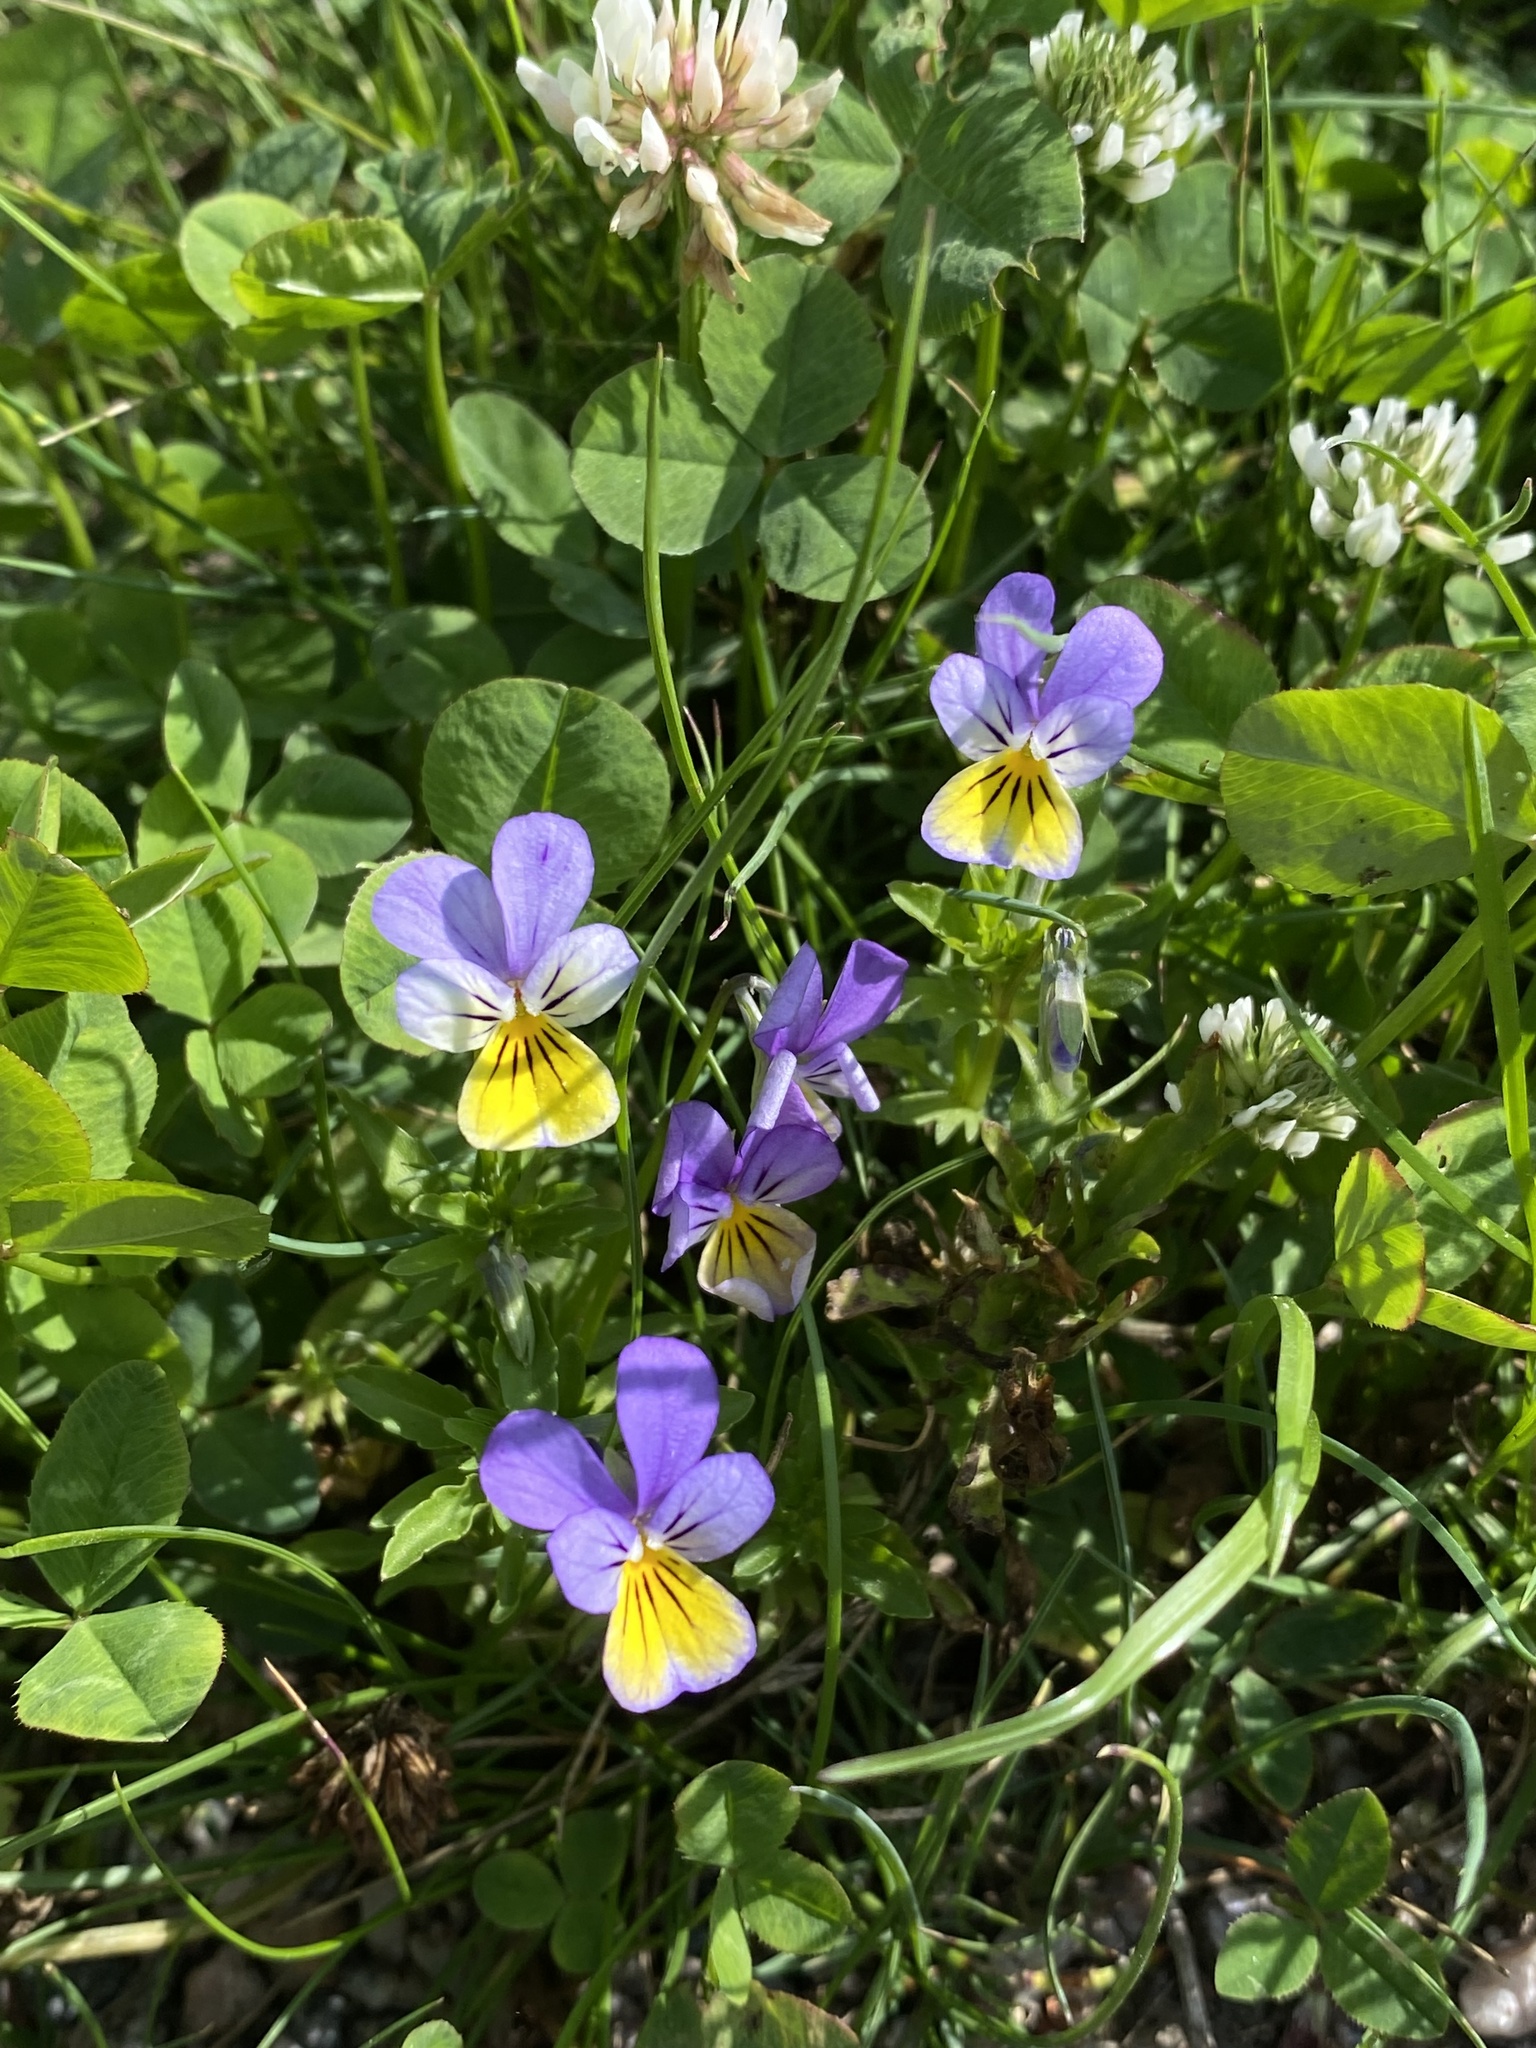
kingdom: Plantae
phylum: Tracheophyta
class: Magnoliopsida
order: Malpighiales
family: Violaceae
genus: Viola
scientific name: Viola tricolor
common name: Pansy
